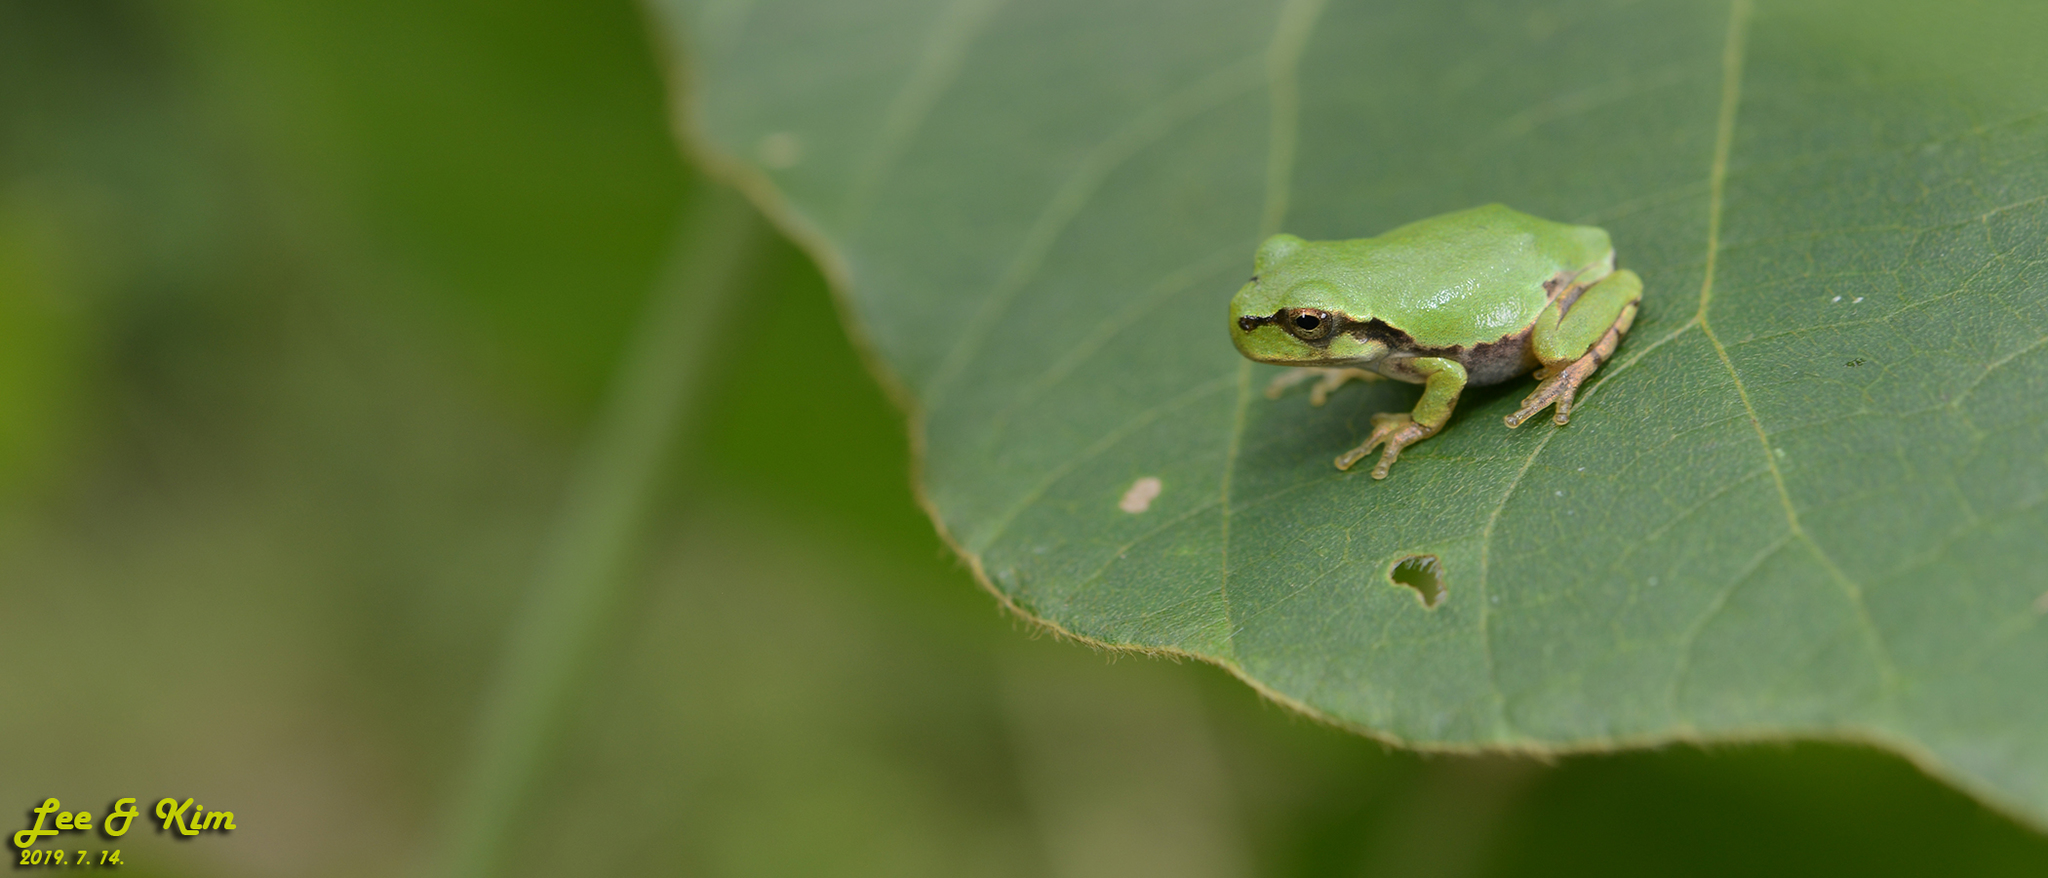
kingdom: Animalia
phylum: Chordata
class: Amphibia
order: Anura
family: Hylidae
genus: Dryophytes
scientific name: Dryophytes japonicus
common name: Japanese treefrog
